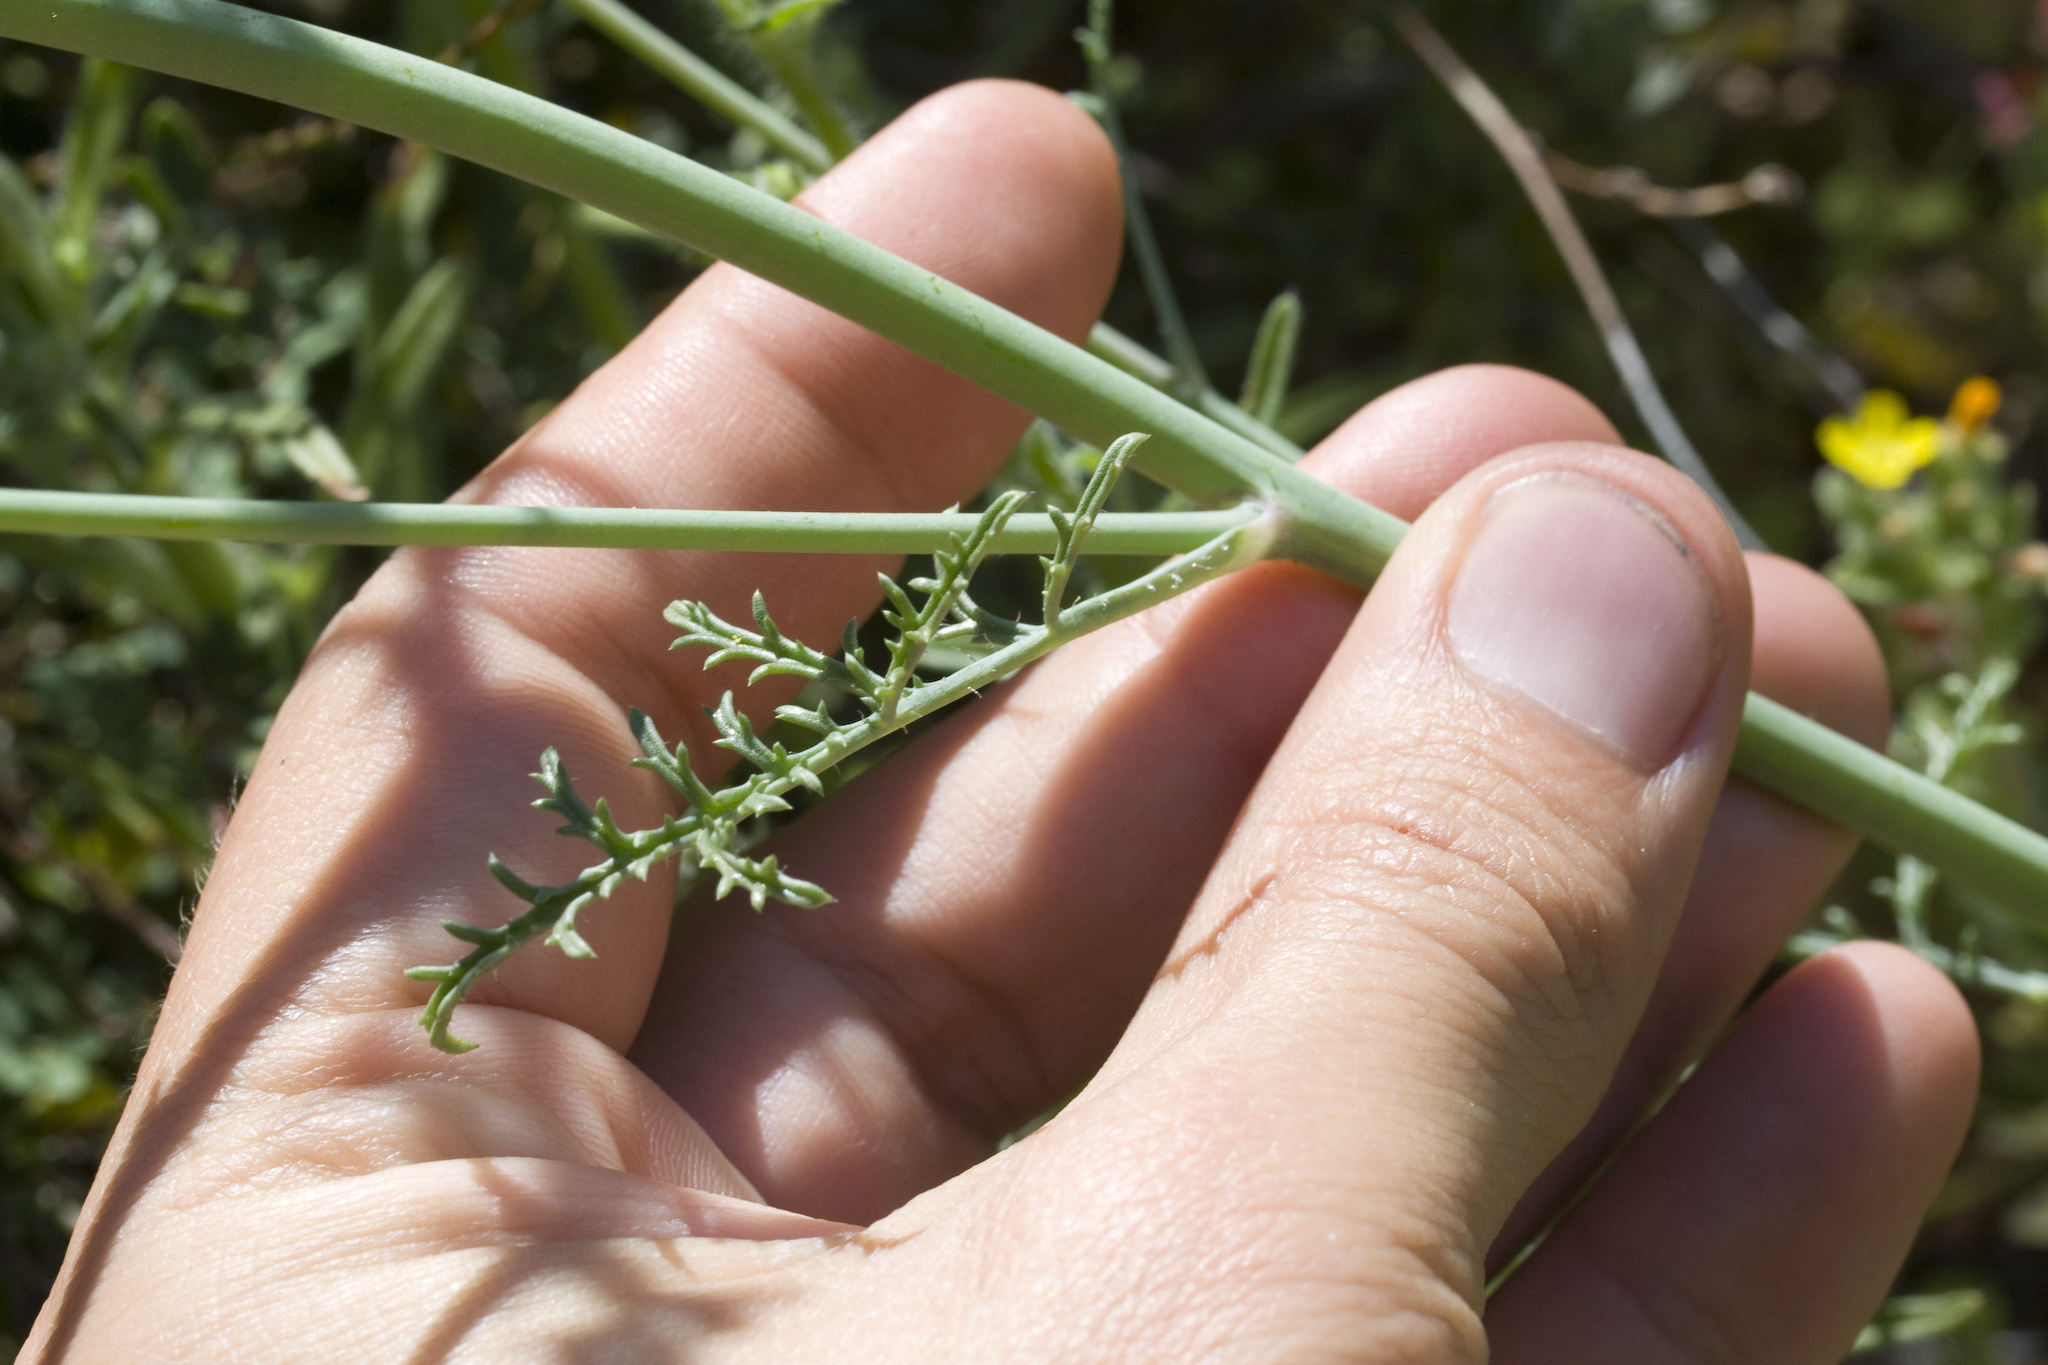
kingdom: Plantae
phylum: Tracheophyta
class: Magnoliopsida
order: Ericales
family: Polemoniaceae
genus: Saltugilia
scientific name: Saltugilia splendens
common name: Grinnell's gilia
